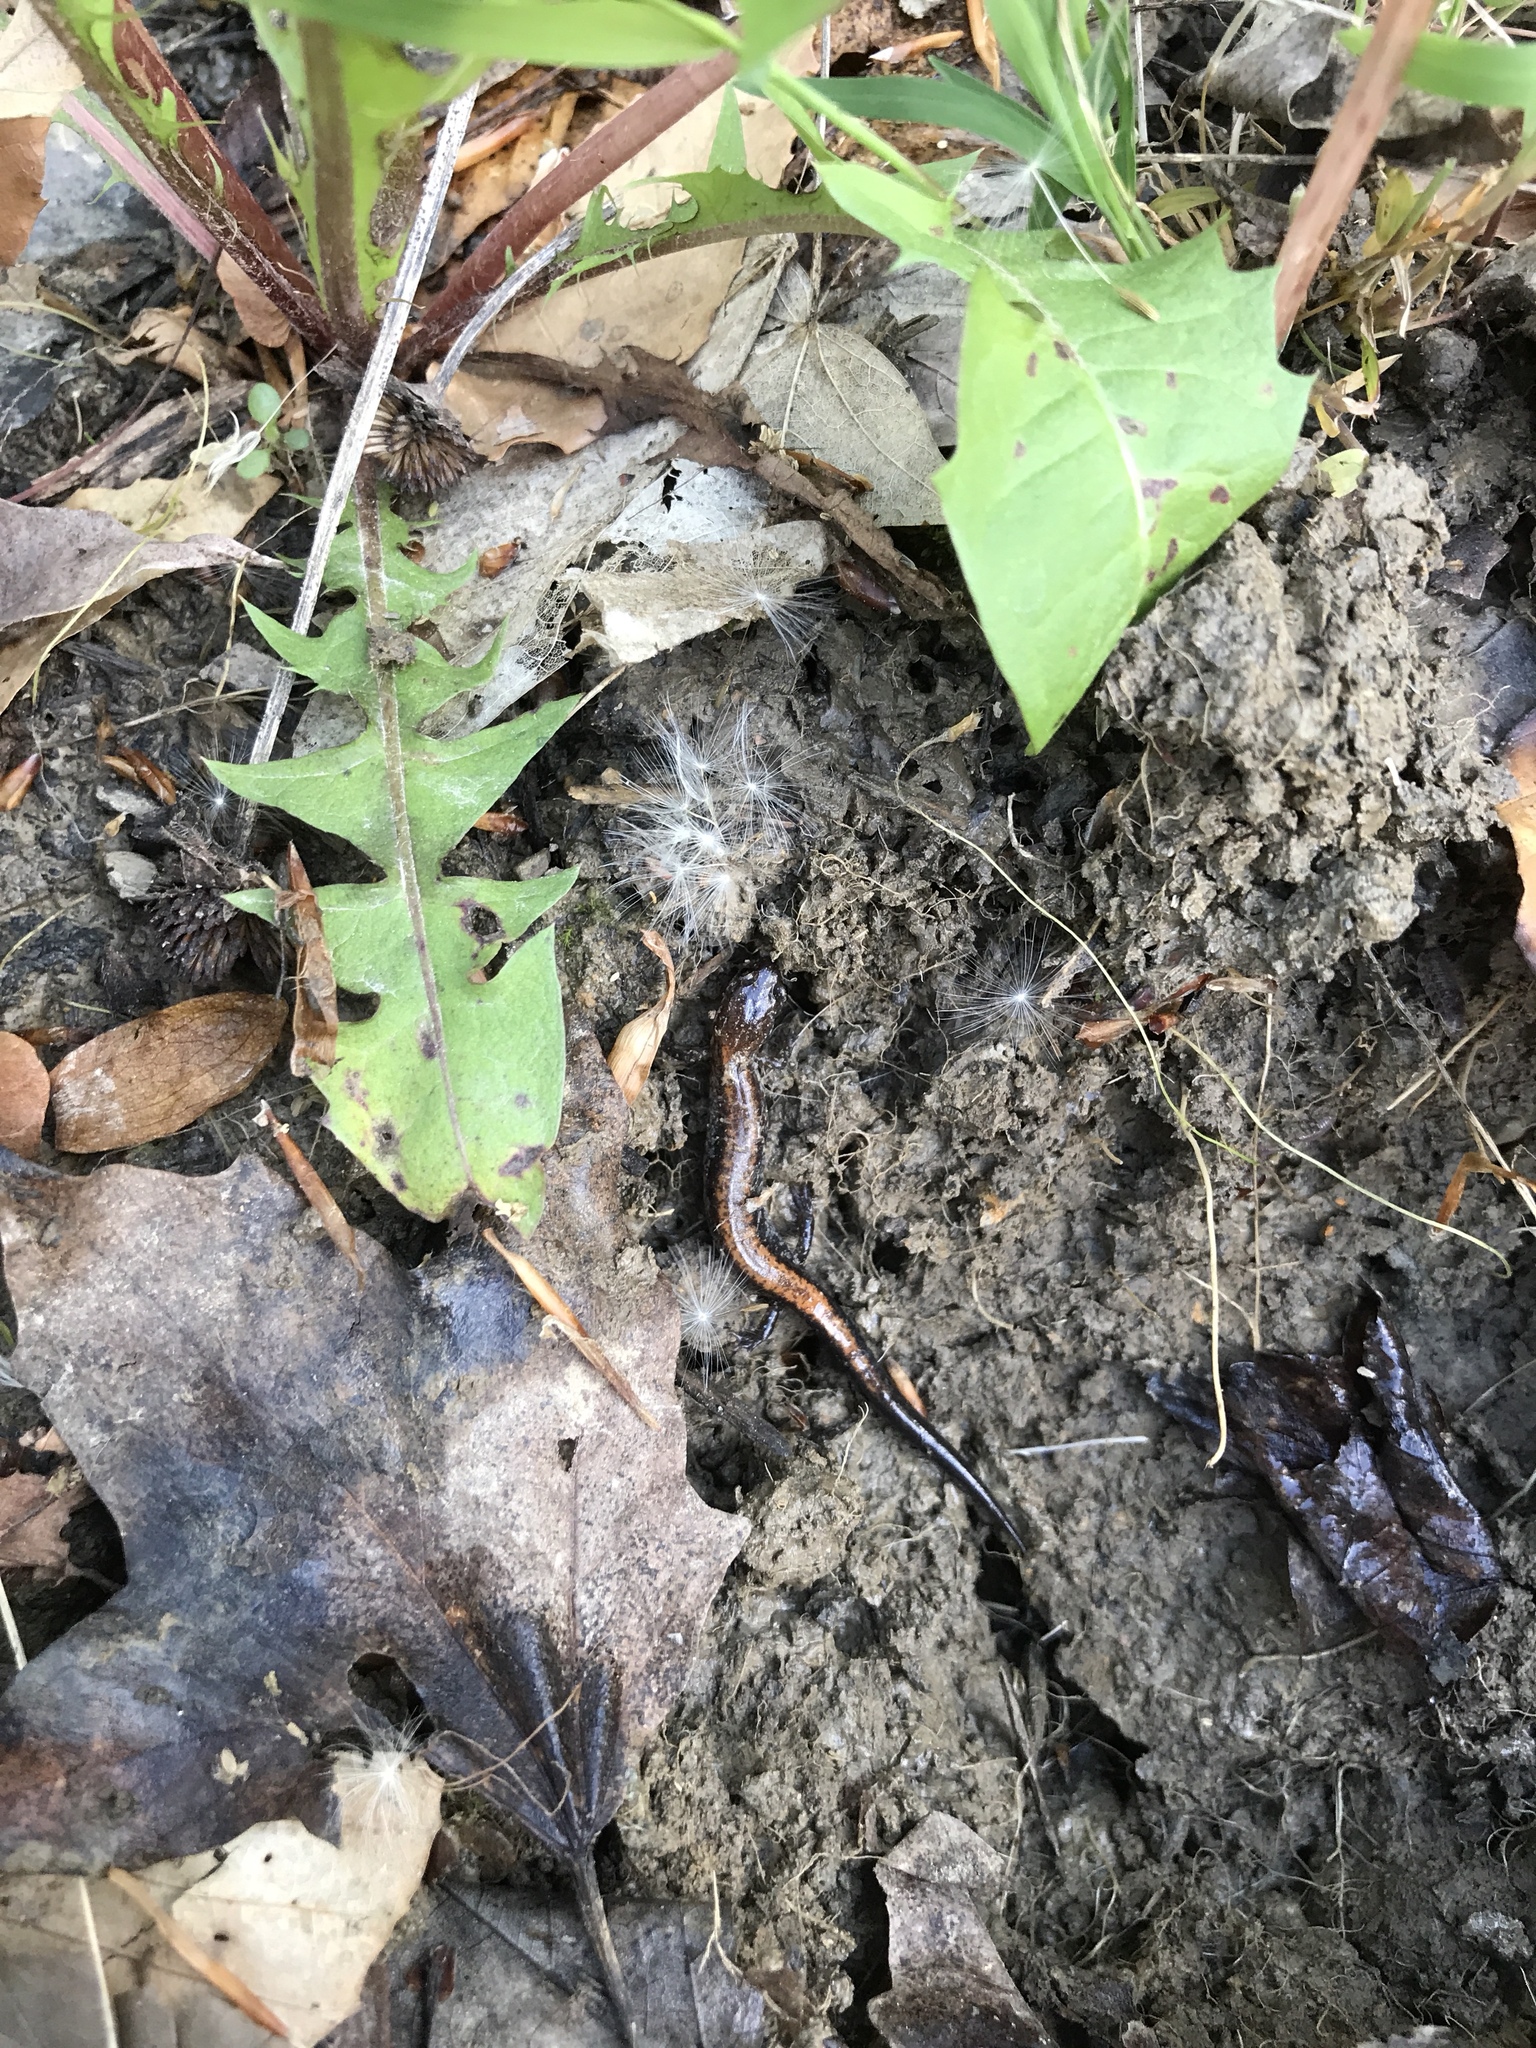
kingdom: Animalia
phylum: Chordata
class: Amphibia
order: Caudata
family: Plethodontidae
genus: Plethodon
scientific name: Plethodon cinereus
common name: Redback salamander
